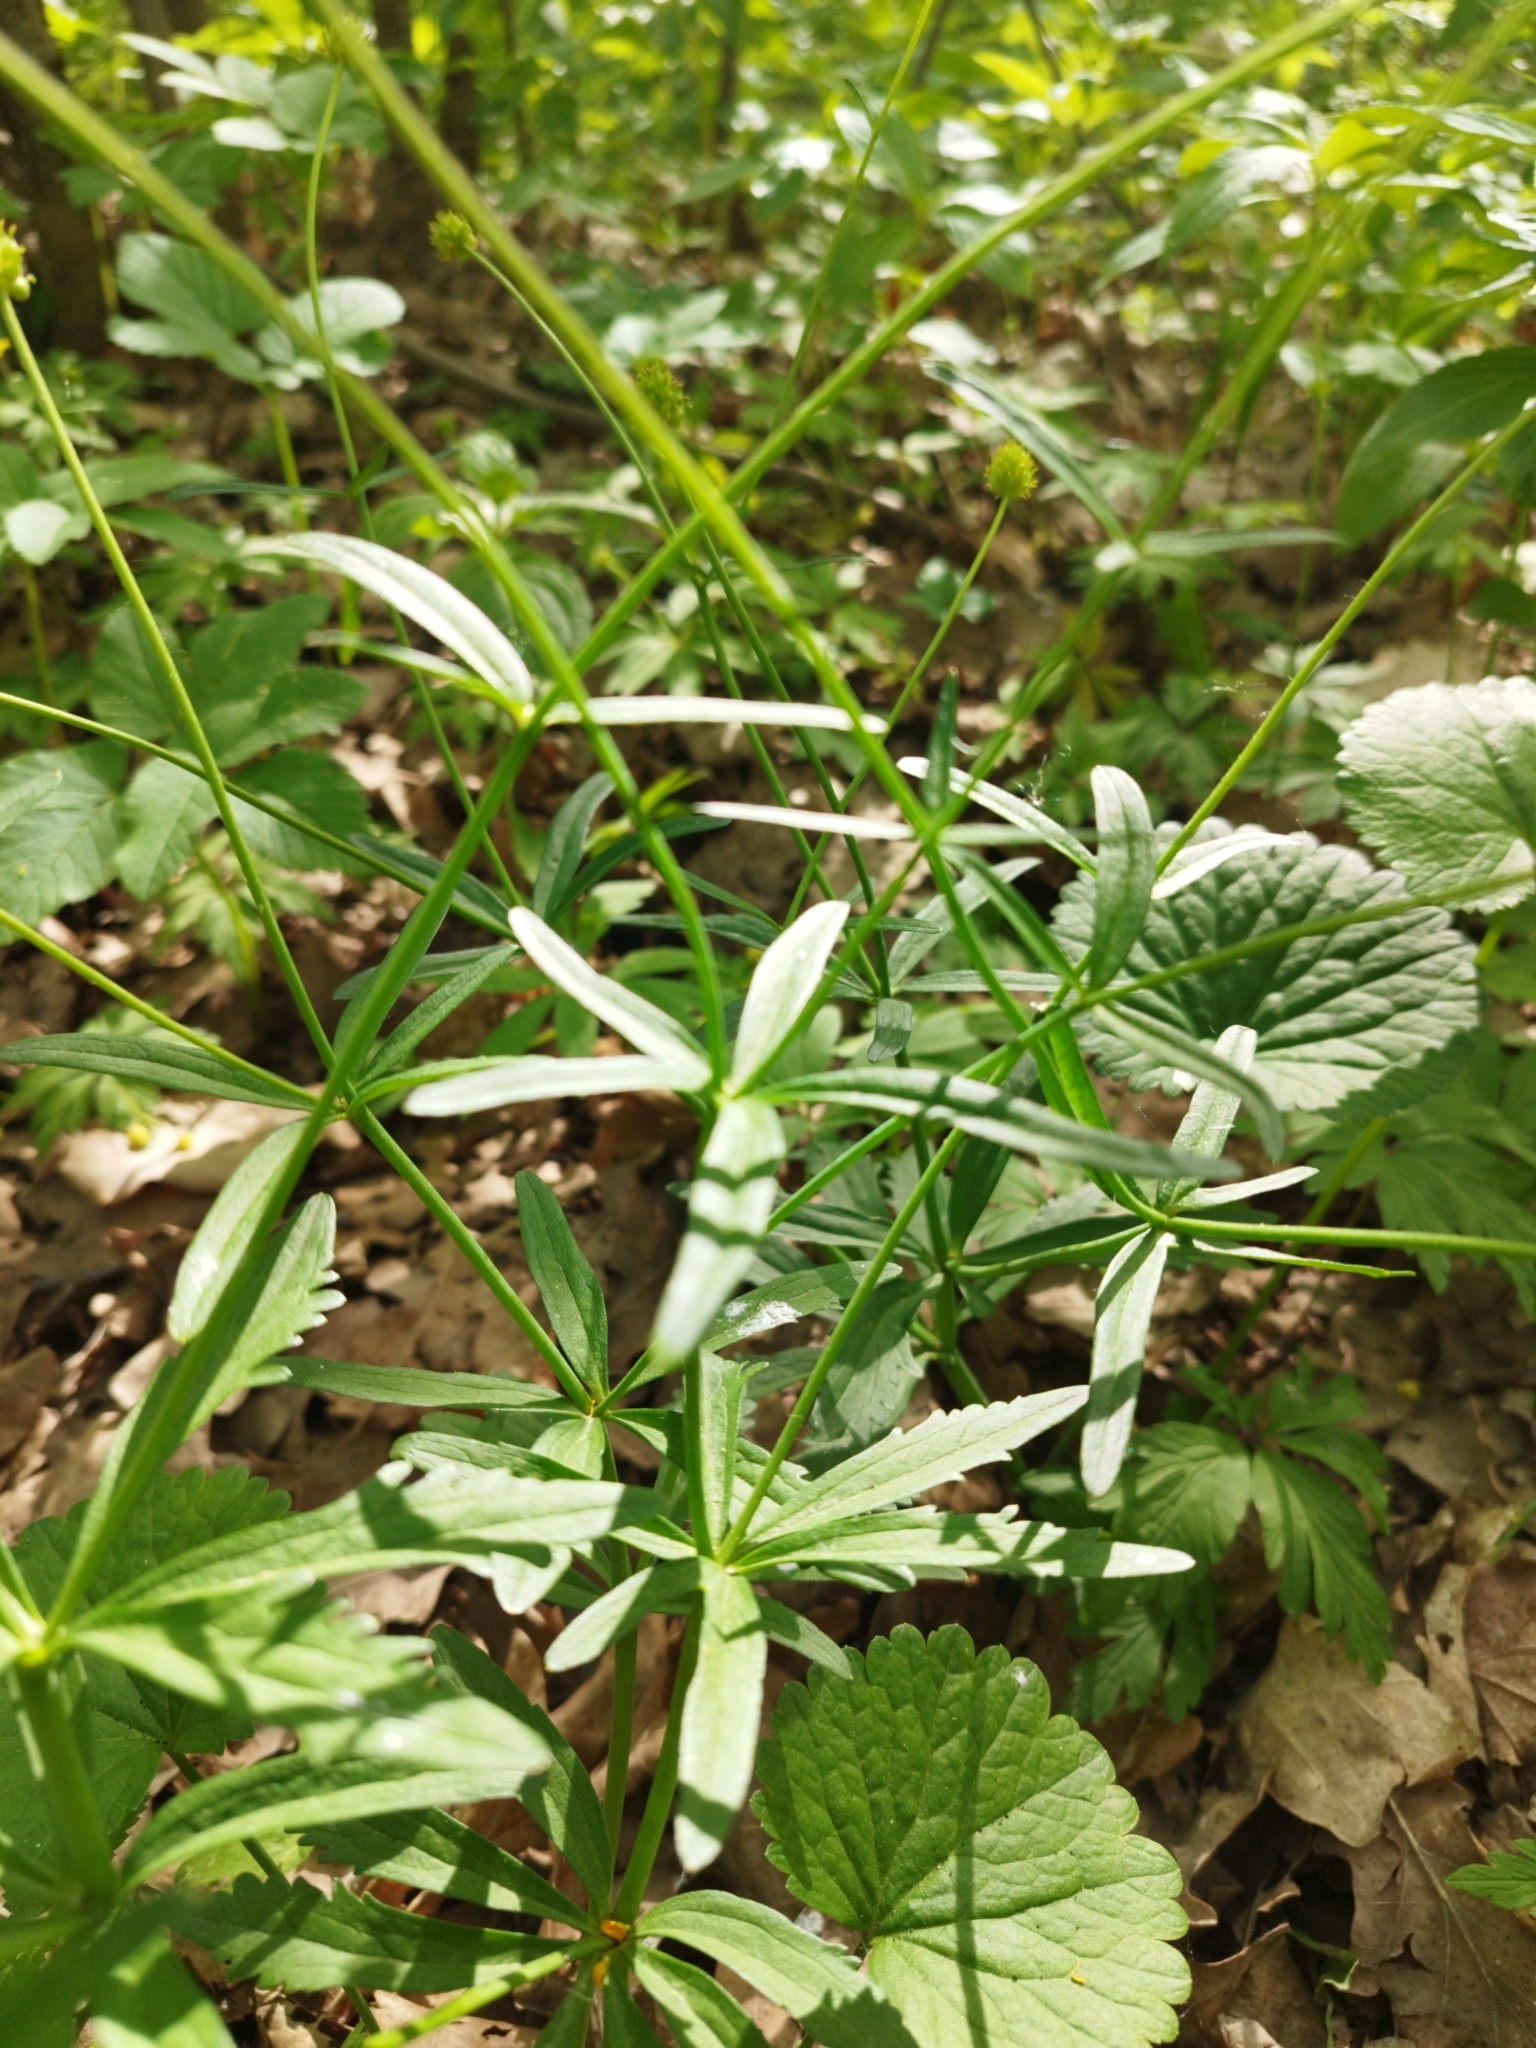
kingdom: Plantae
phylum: Tracheophyta
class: Magnoliopsida
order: Ranunculales
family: Ranunculaceae
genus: Ranunculus
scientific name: Ranunculus cassubicus
